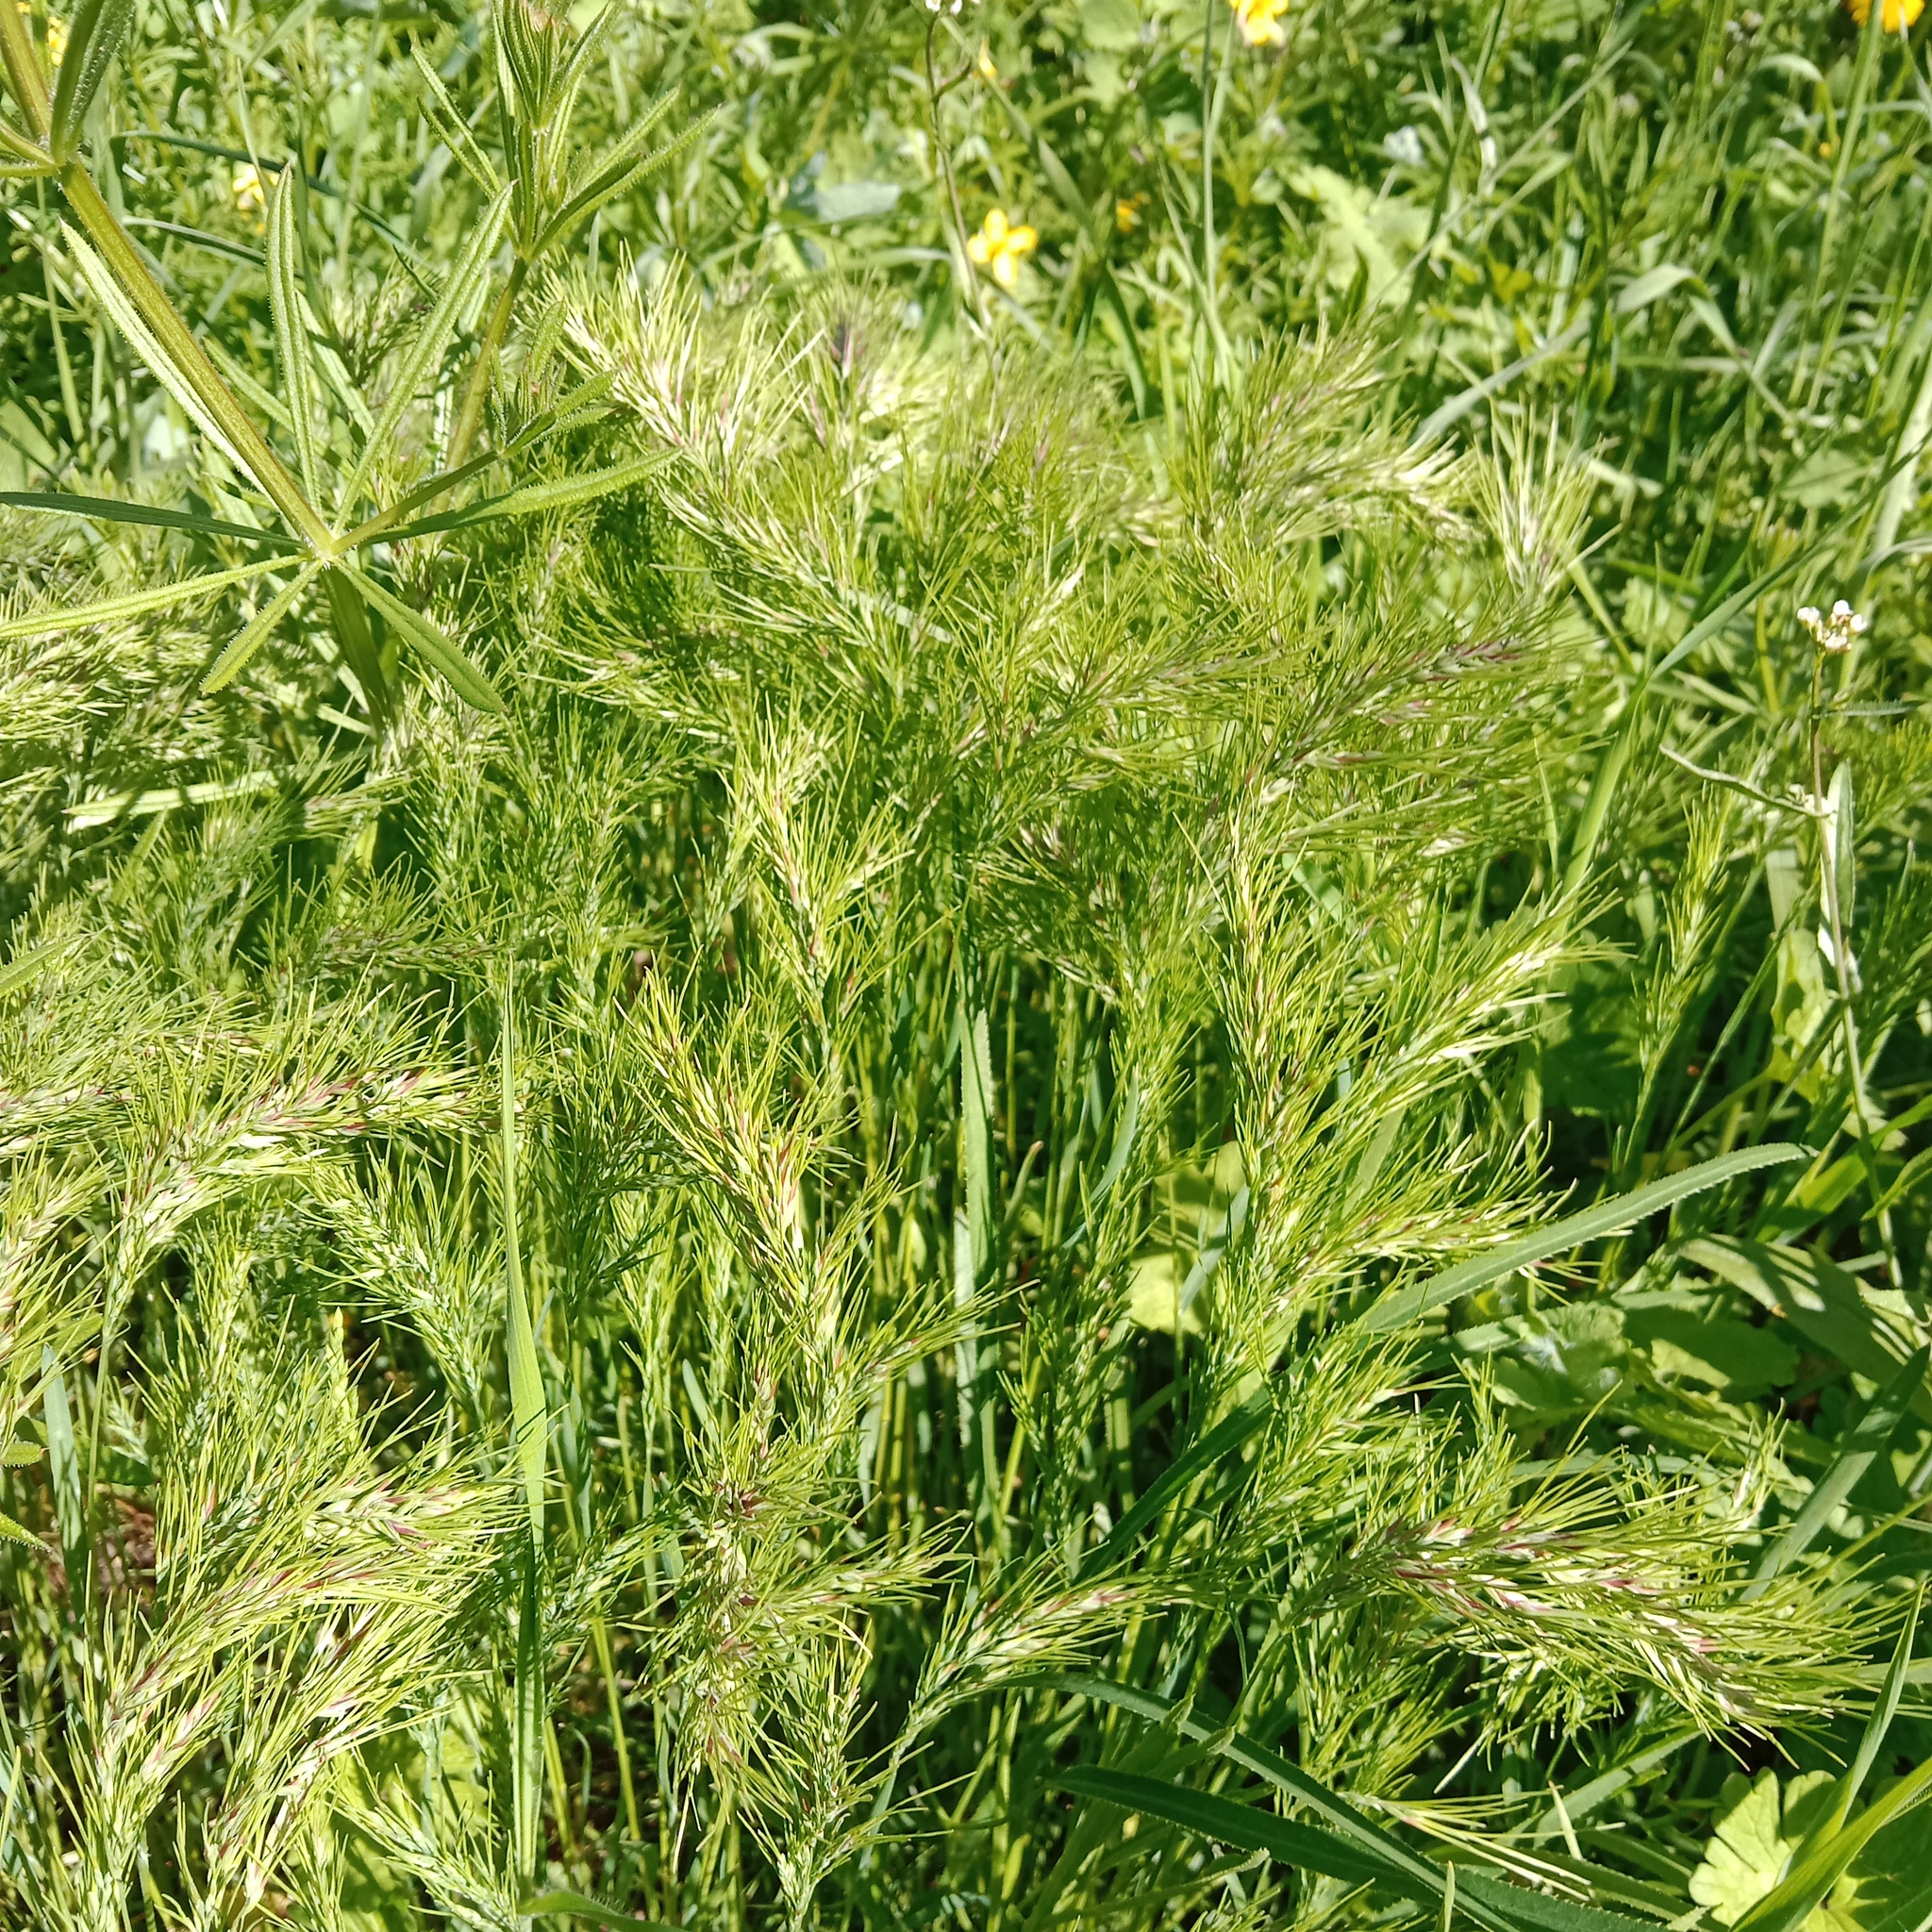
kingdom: Plantae
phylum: Tracheophyta
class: Liliopsida
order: Poales
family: Poaceae
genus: Poa
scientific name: Poa bulbosa
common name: Bulbous bluegrass
